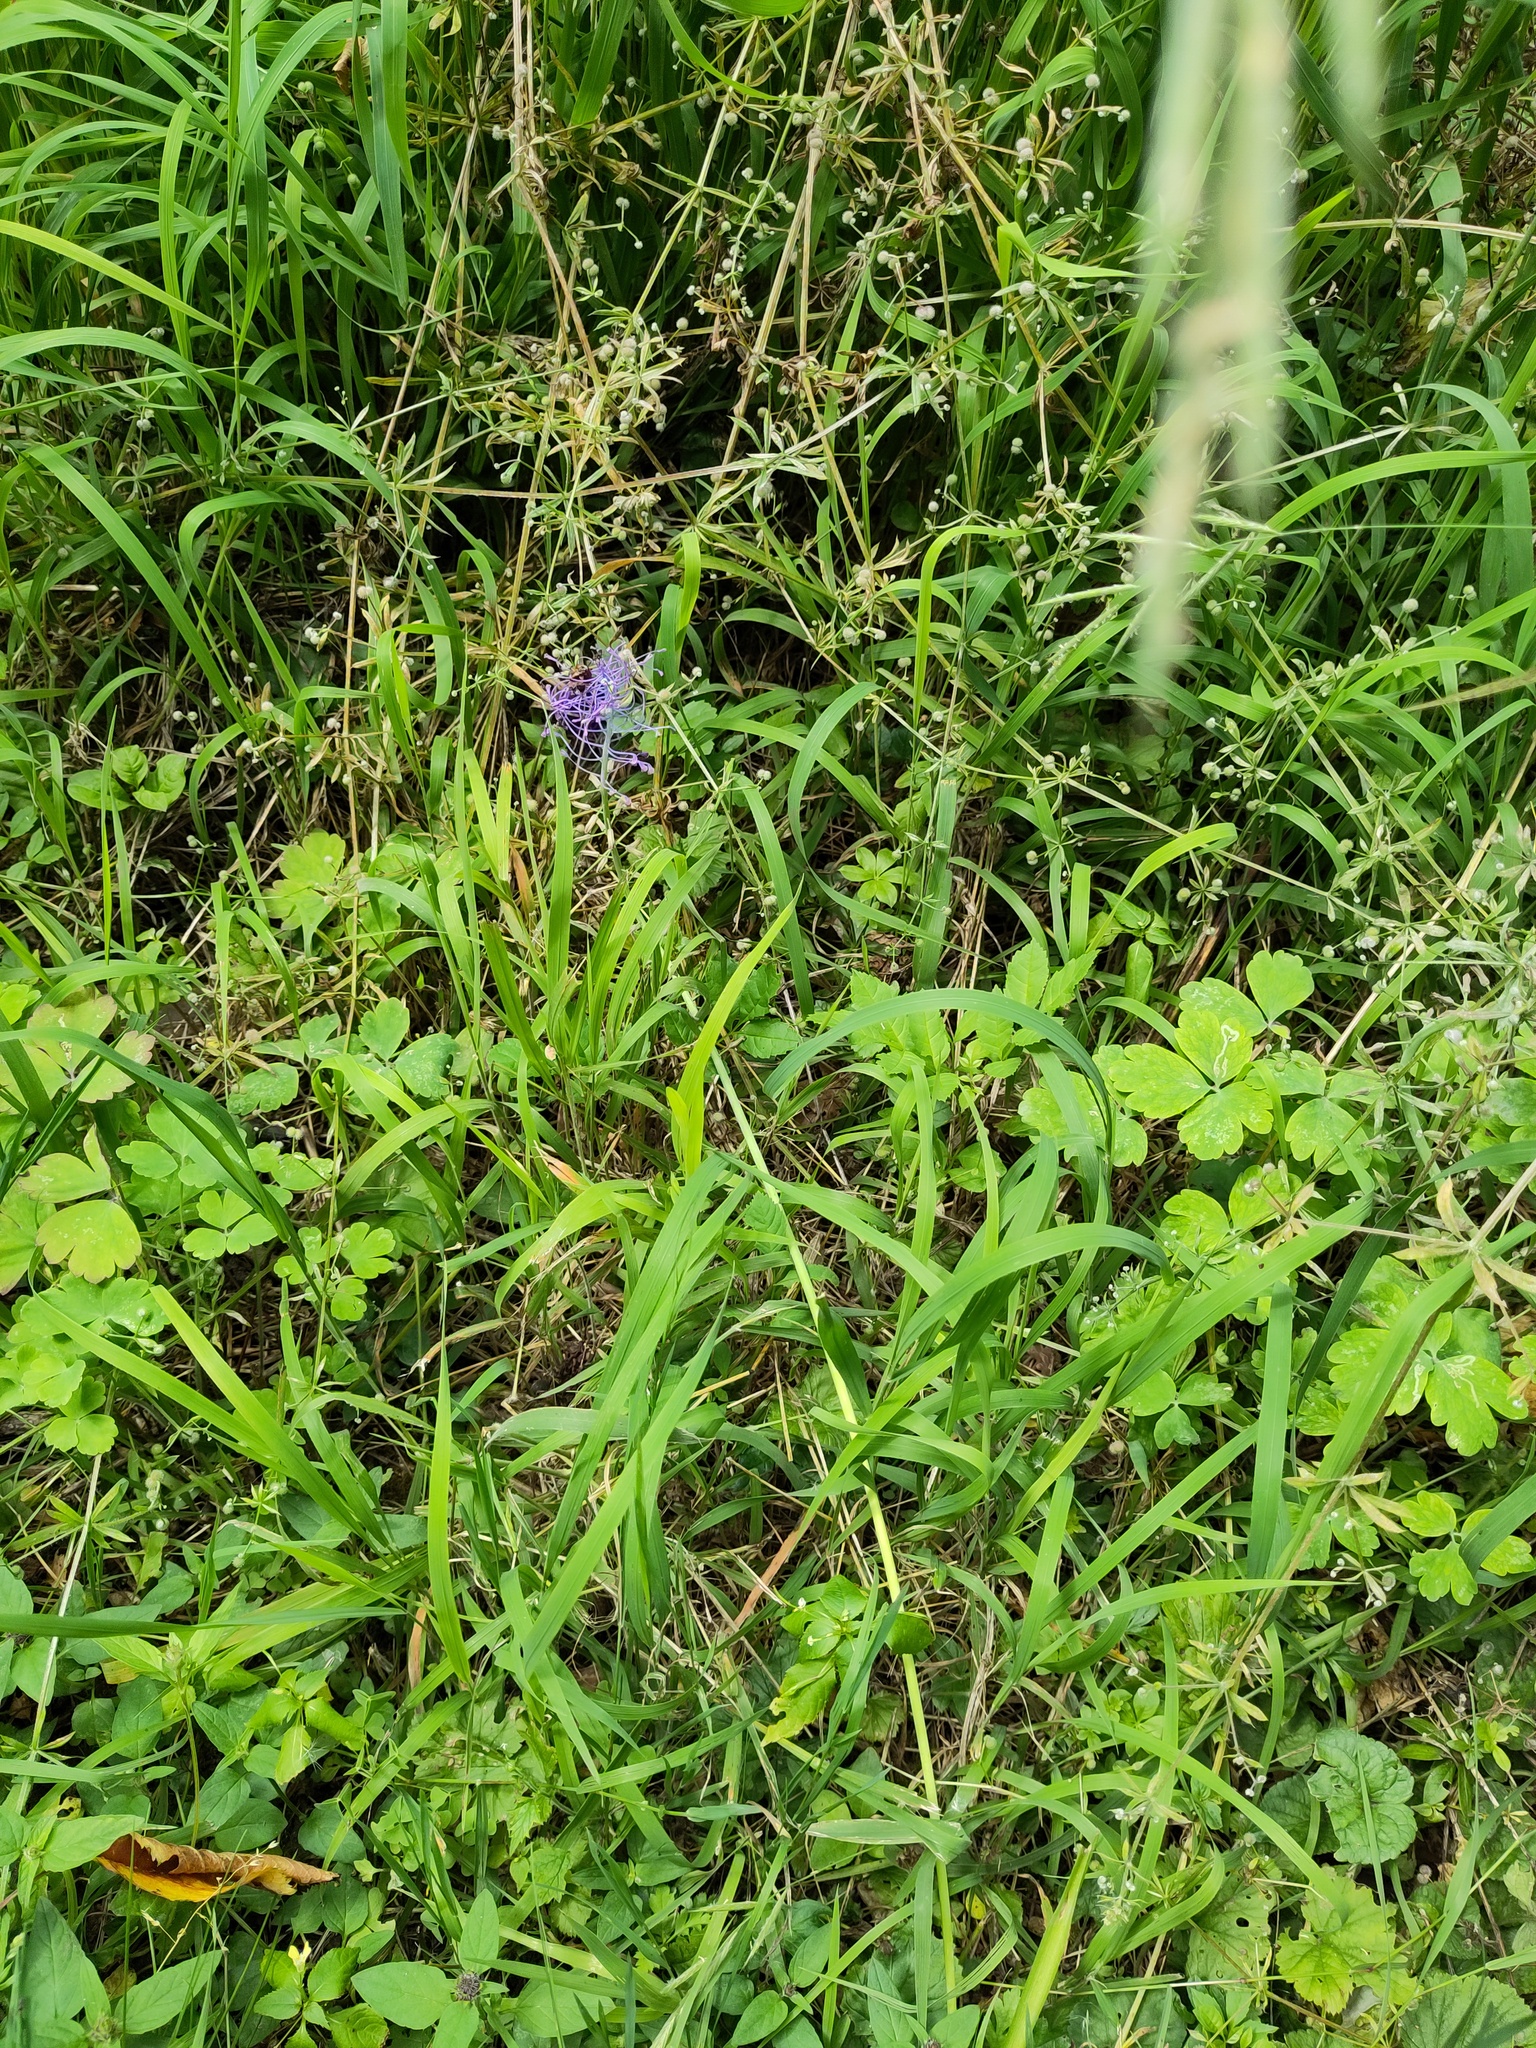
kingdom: Plantae
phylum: Tracheophyta
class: Liliopsida
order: Asparagales
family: Asparagaceae
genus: Muscari
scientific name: Muscari comosum
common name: Tassel hyacinth
